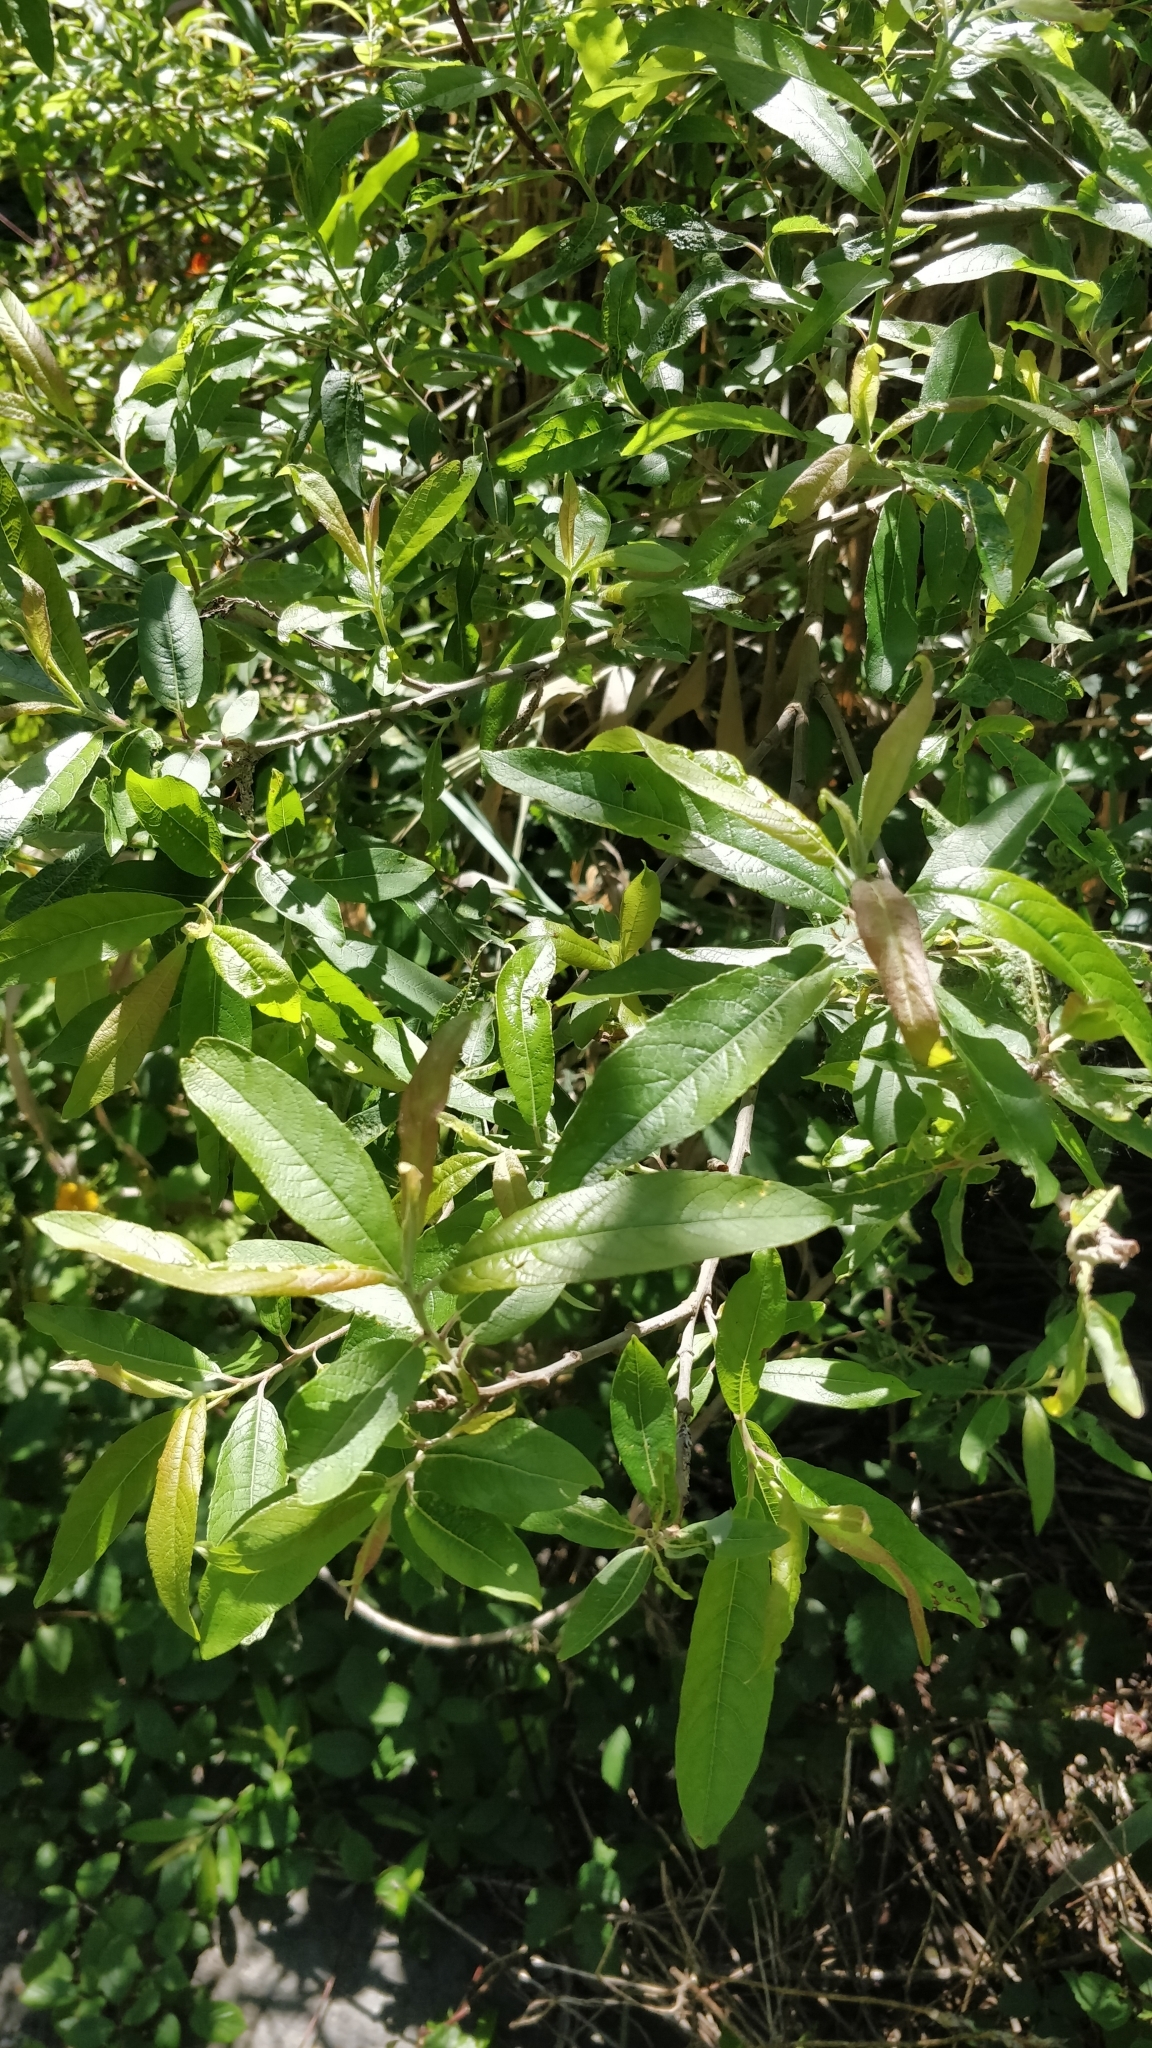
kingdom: Plantae
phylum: Tracheophyta
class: Magnoliopsida
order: Malpighiales
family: Salicaceae
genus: Salix
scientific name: Salix canariensis
